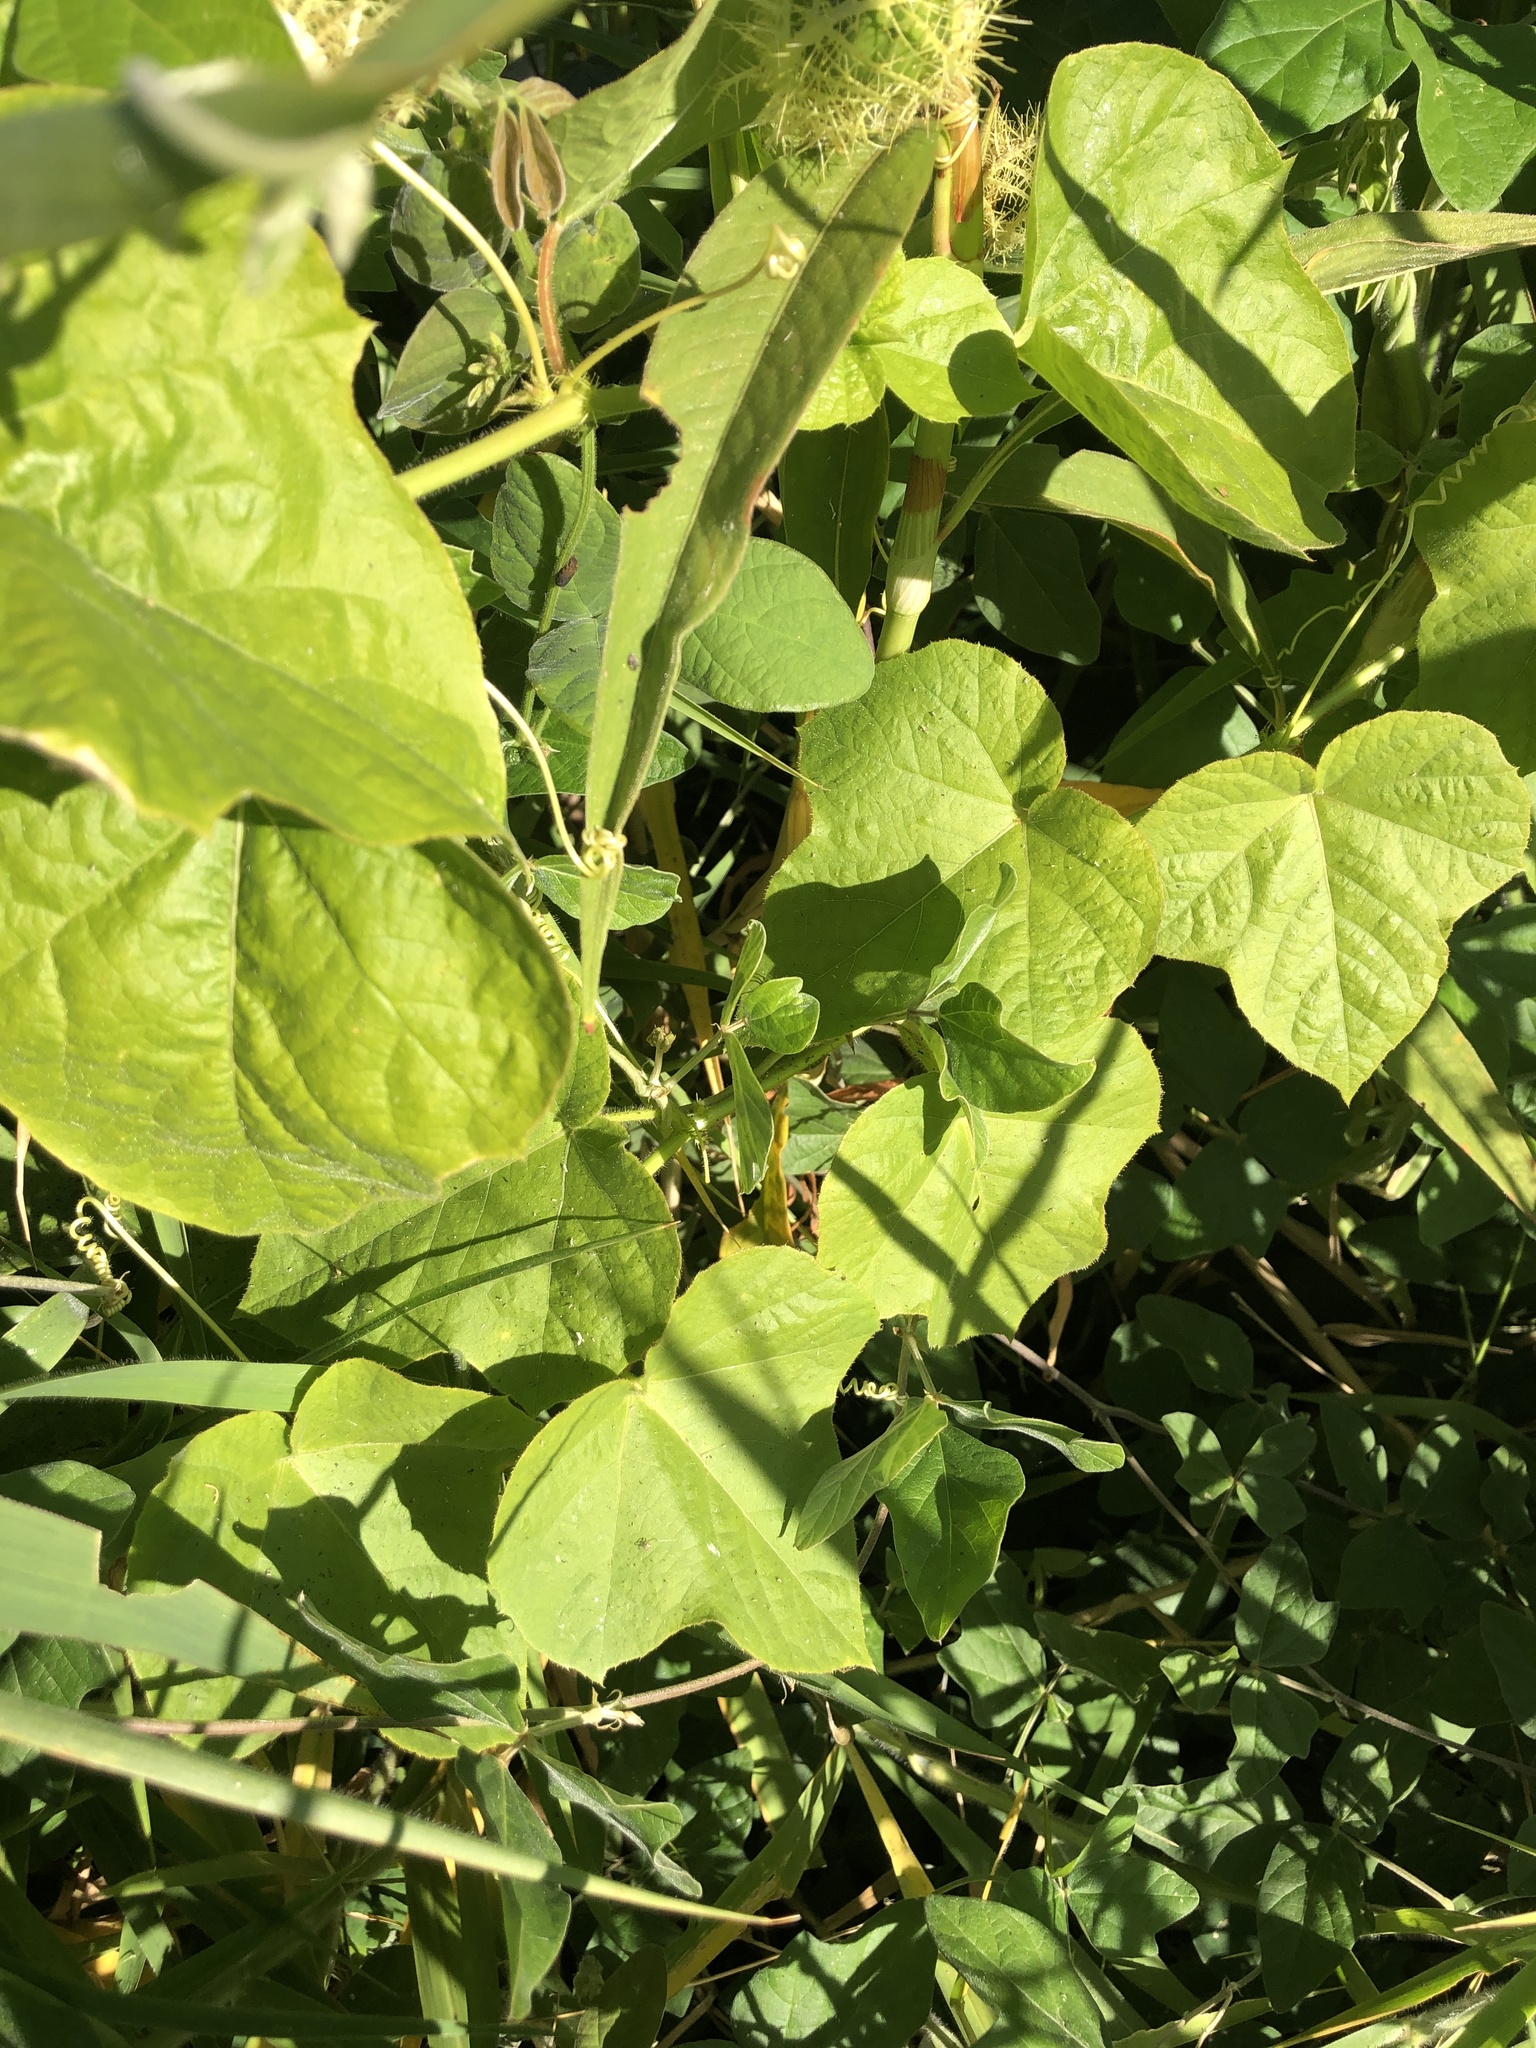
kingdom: Plantae
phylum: Tracheophyta
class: Magnoliopsida
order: Malpighiales
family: Passifloraceae
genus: Passiflora
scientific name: Passiflora foetida
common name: Fetid passionflower
